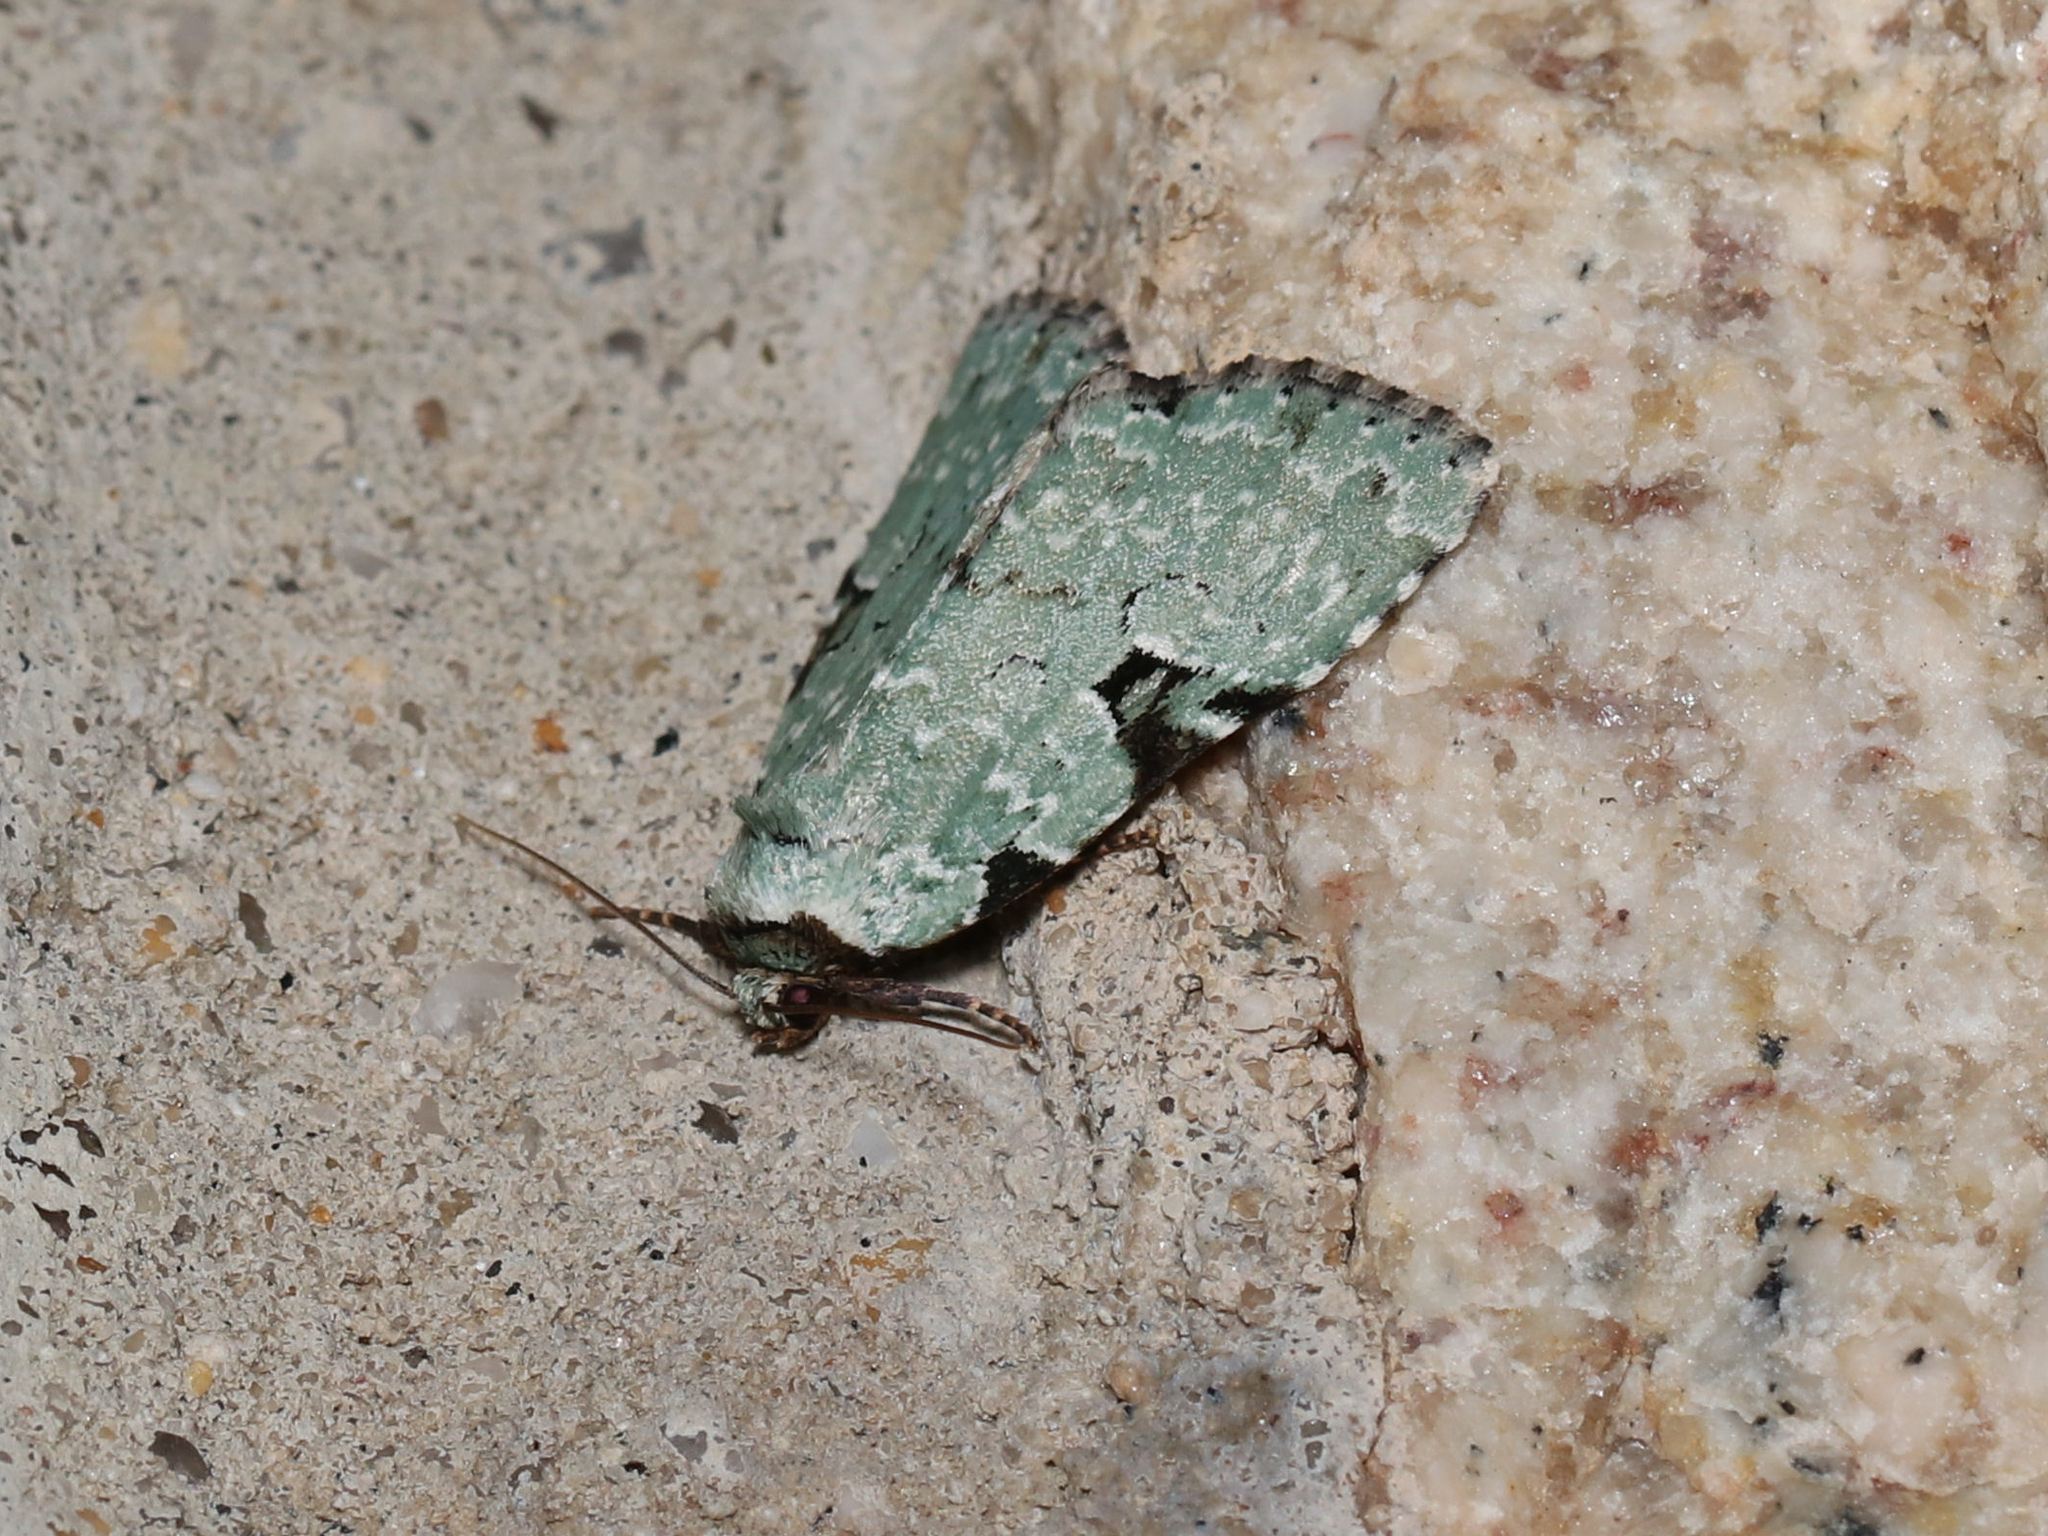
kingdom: Animalia
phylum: Arthropoda
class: Insecta
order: Lepidoptera
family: Noctuidae
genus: Leuconycta
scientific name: Leuconycta diphteroides
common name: Green leuconycta moth
